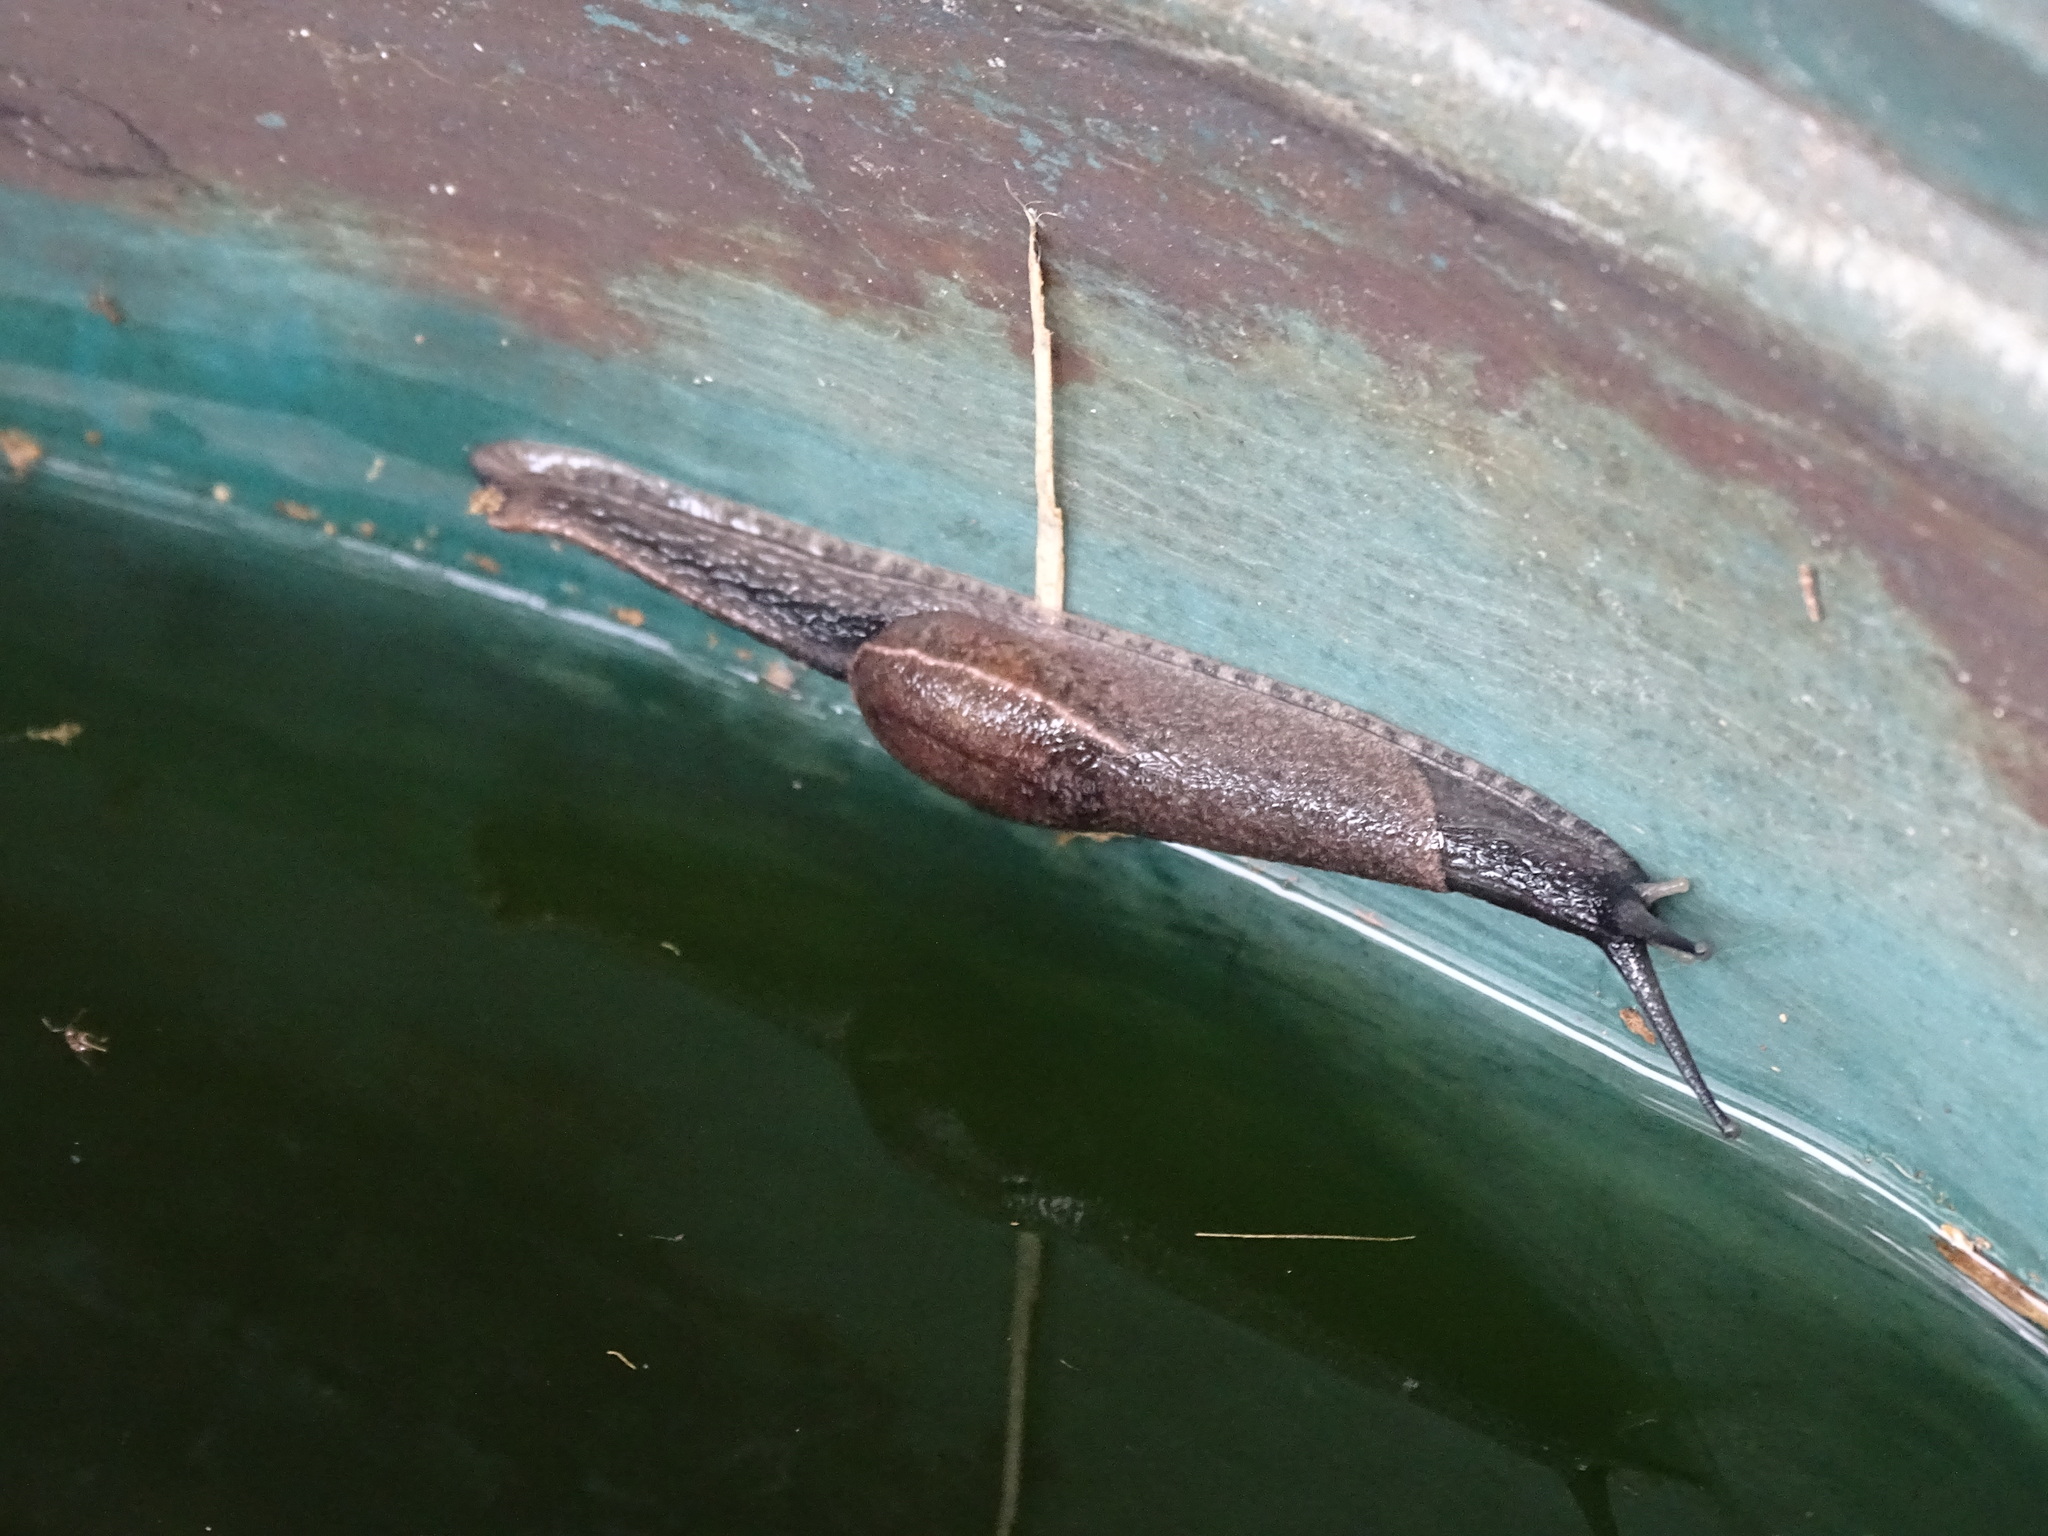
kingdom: Animalia
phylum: Mollusca
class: Gastropoda
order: Stylommatophora
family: Ariophantidae
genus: Parmarion
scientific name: Parmarion martensi
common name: Semi-slug
